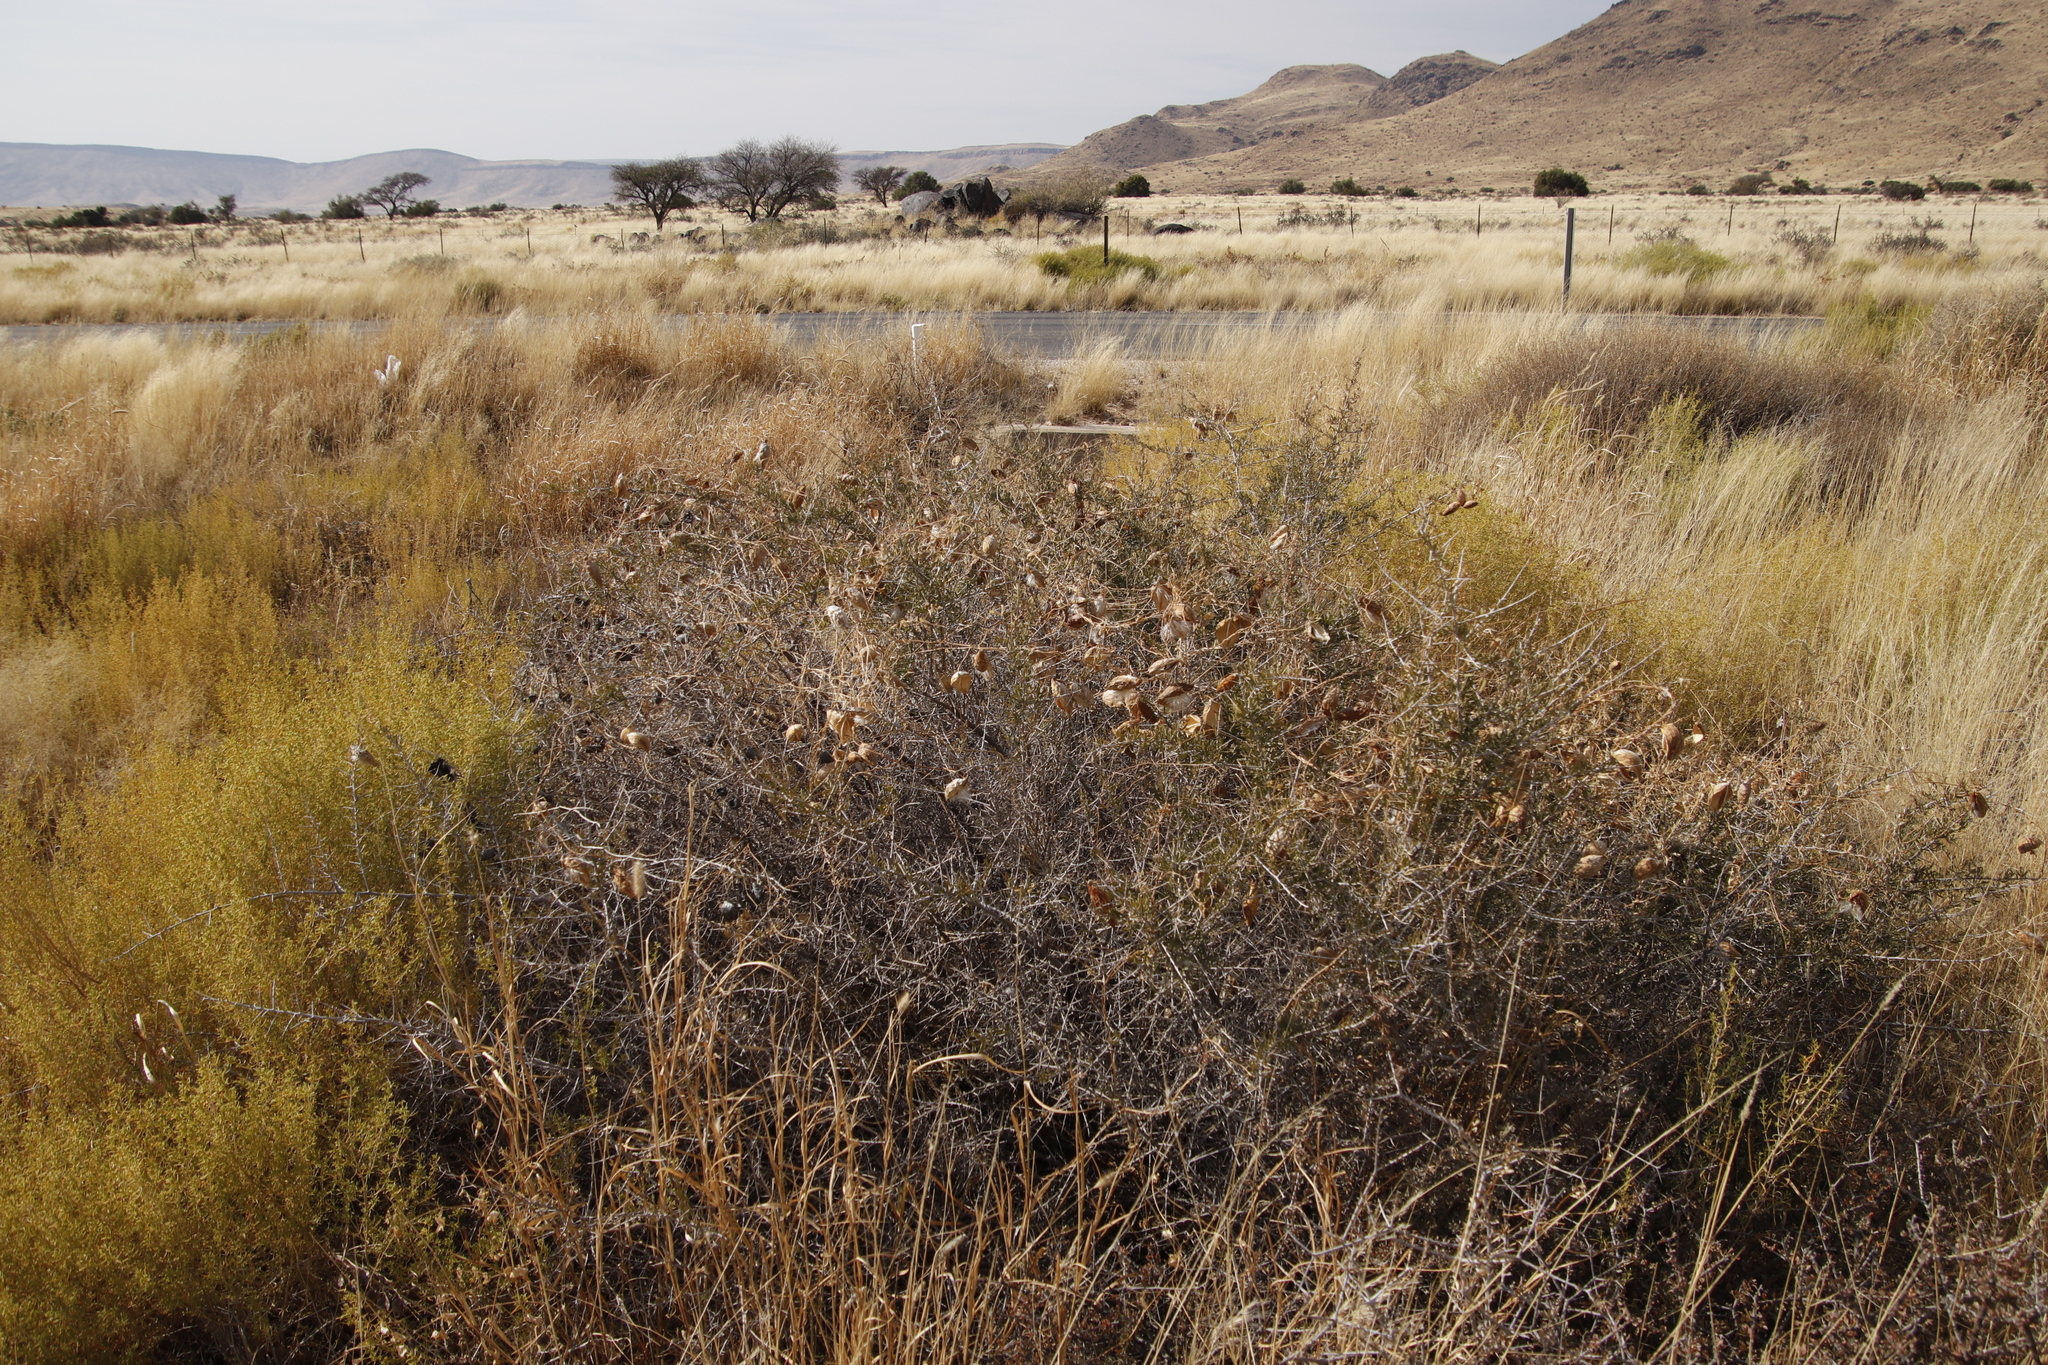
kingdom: Plantae
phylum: Tracheophyta
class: Magnoliopsida
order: Gentianales
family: Apocynaceae
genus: Pergularia
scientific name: Pergularia daemia
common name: Trellis-vine
